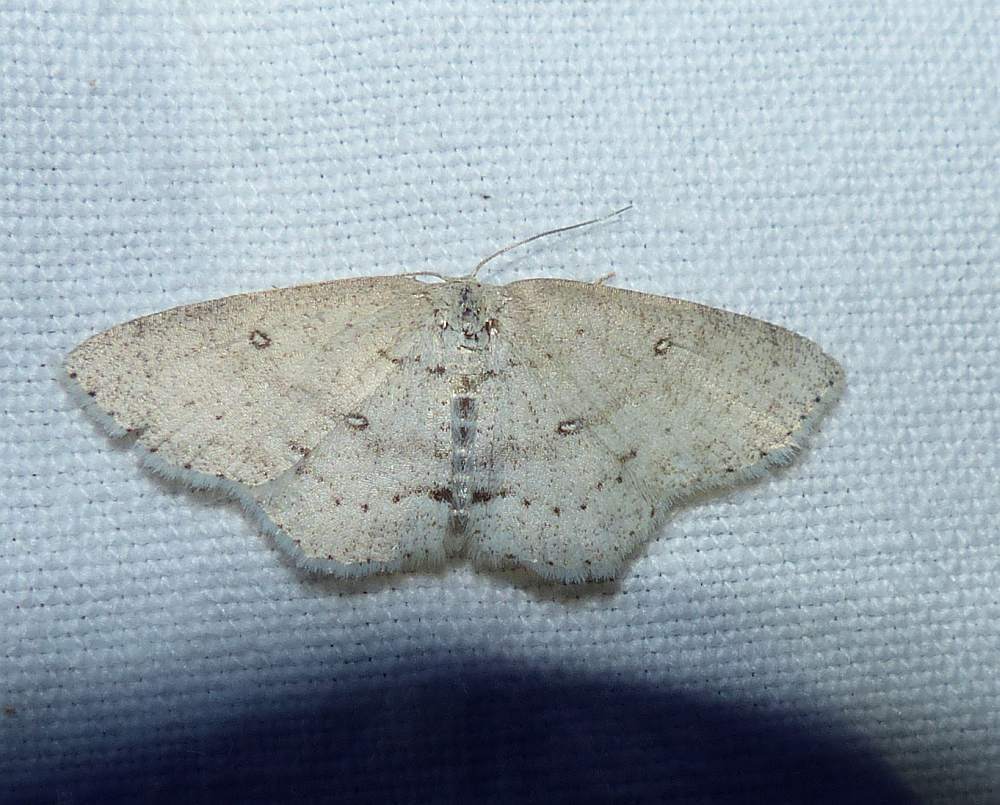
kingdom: Animalia
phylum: Arthropoda
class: Insecta
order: Lepidoptera
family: Geometridae
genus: Cyclophora
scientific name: Cyclophora pendulinaria
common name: Sweet fern geometer
